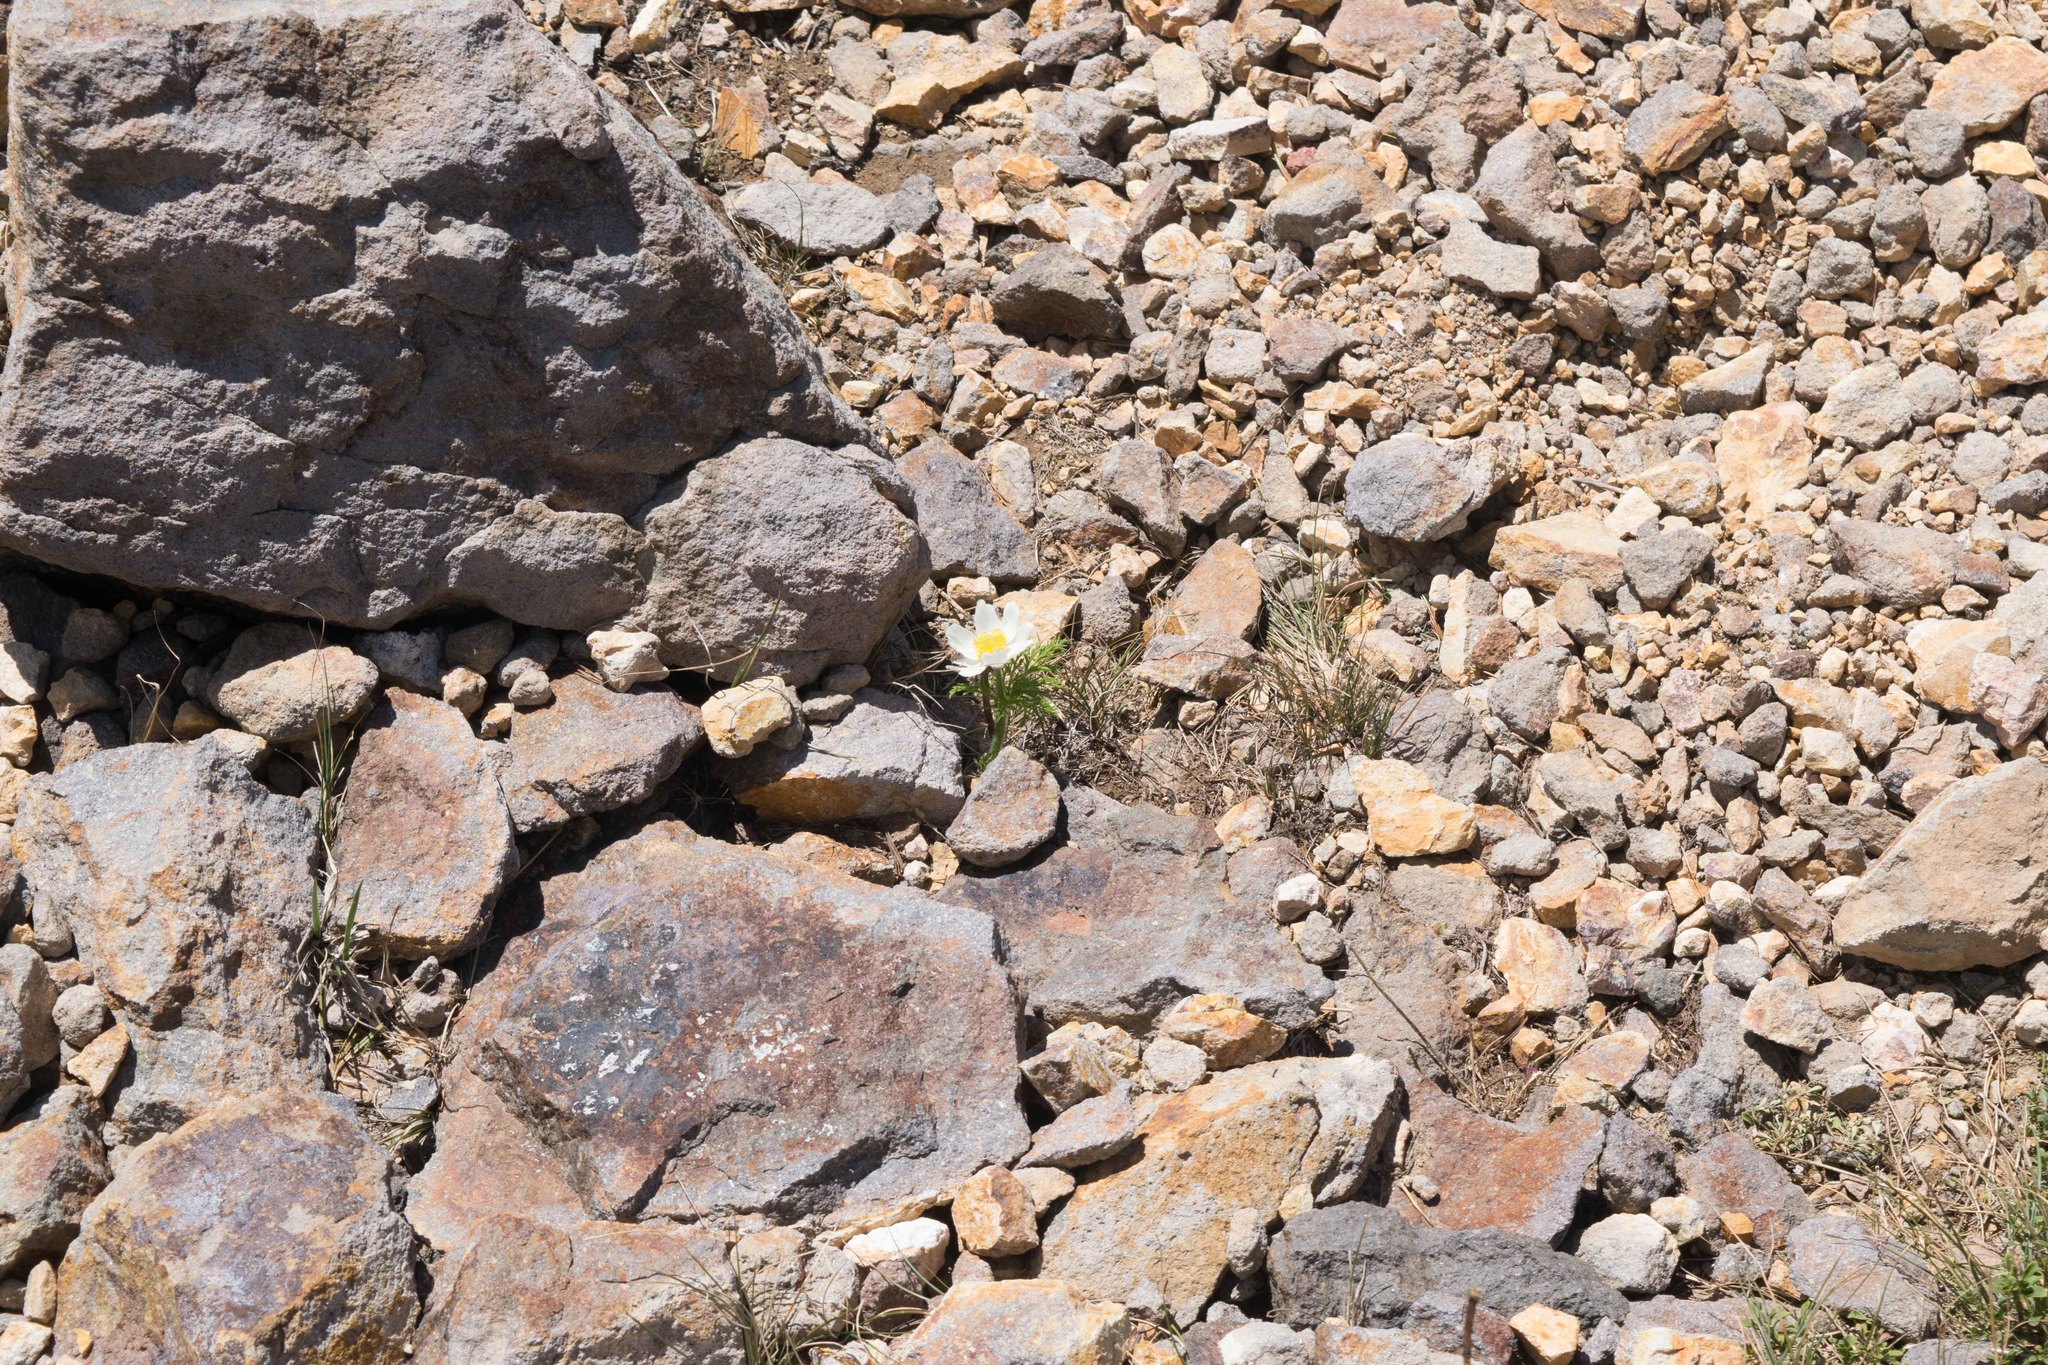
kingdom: Plantae
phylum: Tracheophyta
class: Magnoliopsida
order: Ranunculales
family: Ranunculaceae
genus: Pulsatilla
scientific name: Pulsatilla occidentalis
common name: Mountain pasqueflower
